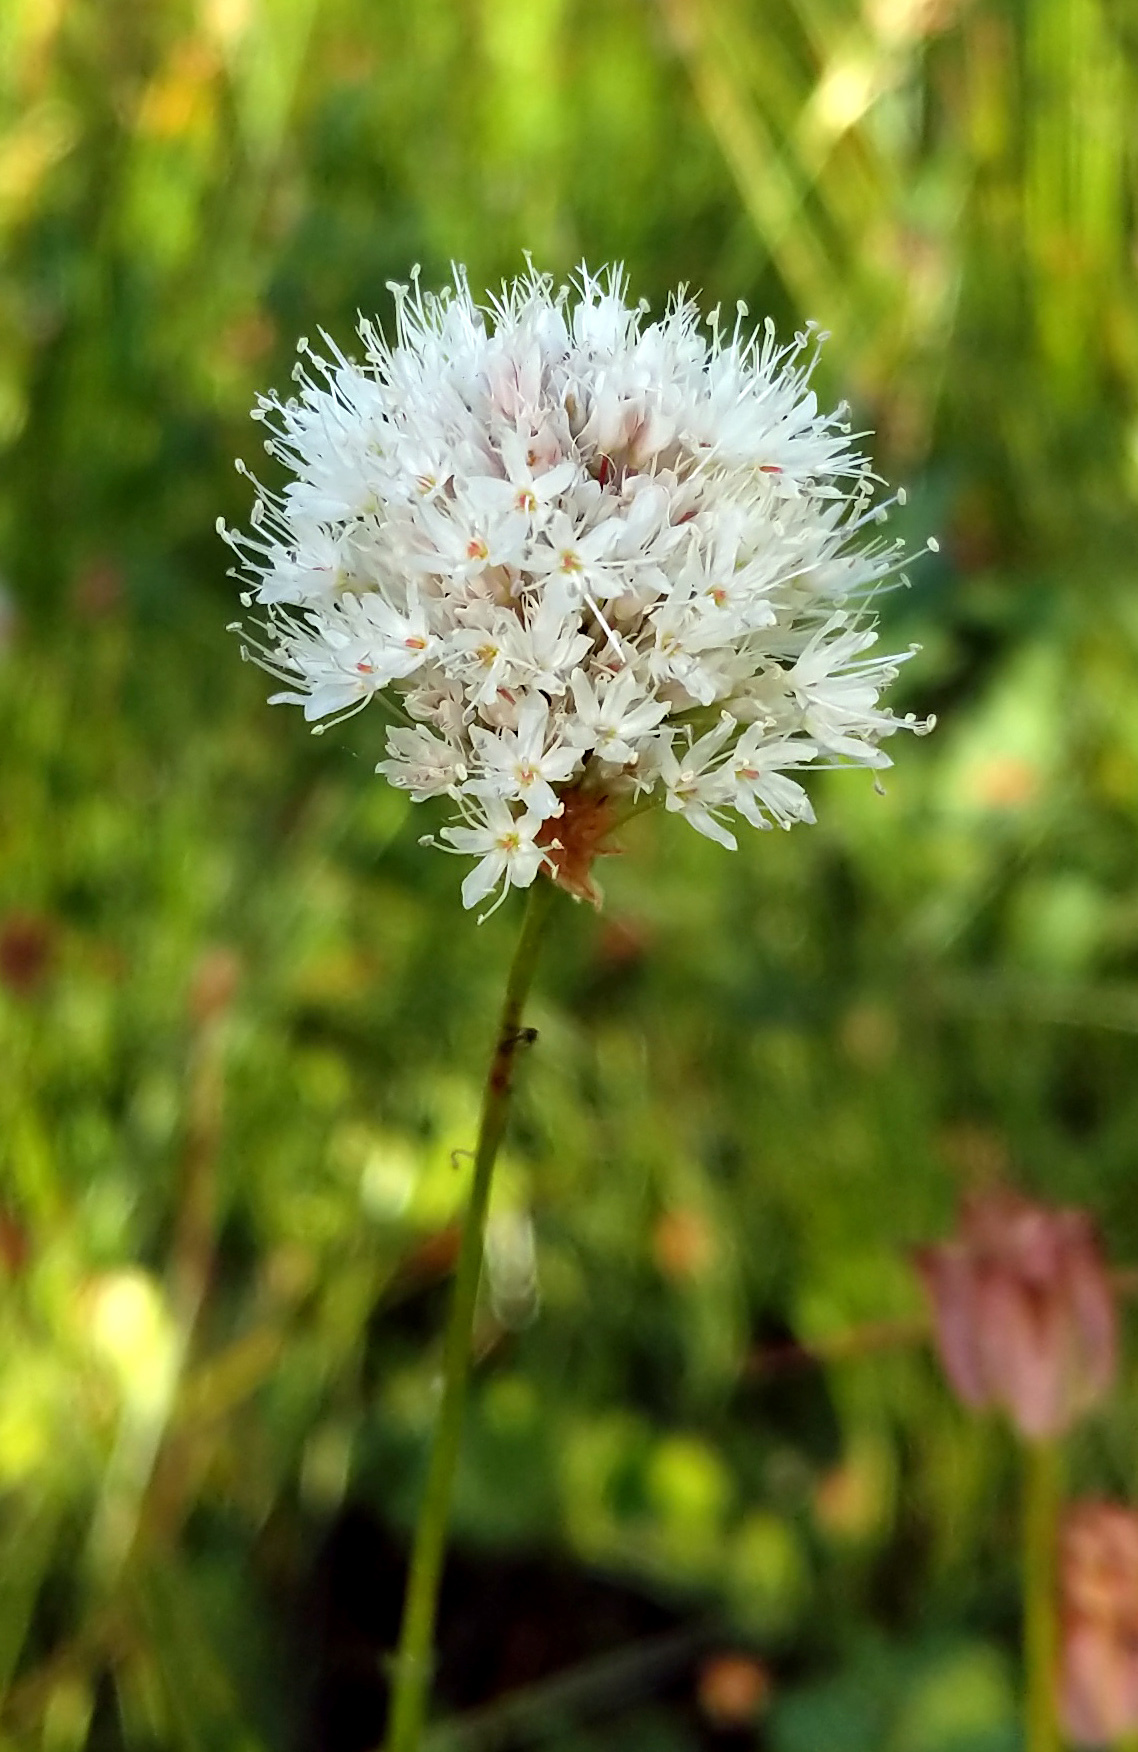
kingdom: Plantae
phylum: Tracheophyta
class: Magnoliopsida
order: Caryophyllales
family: Polygonaceae
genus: Bistorta
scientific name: Bistorta bistortoides
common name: American bistort
